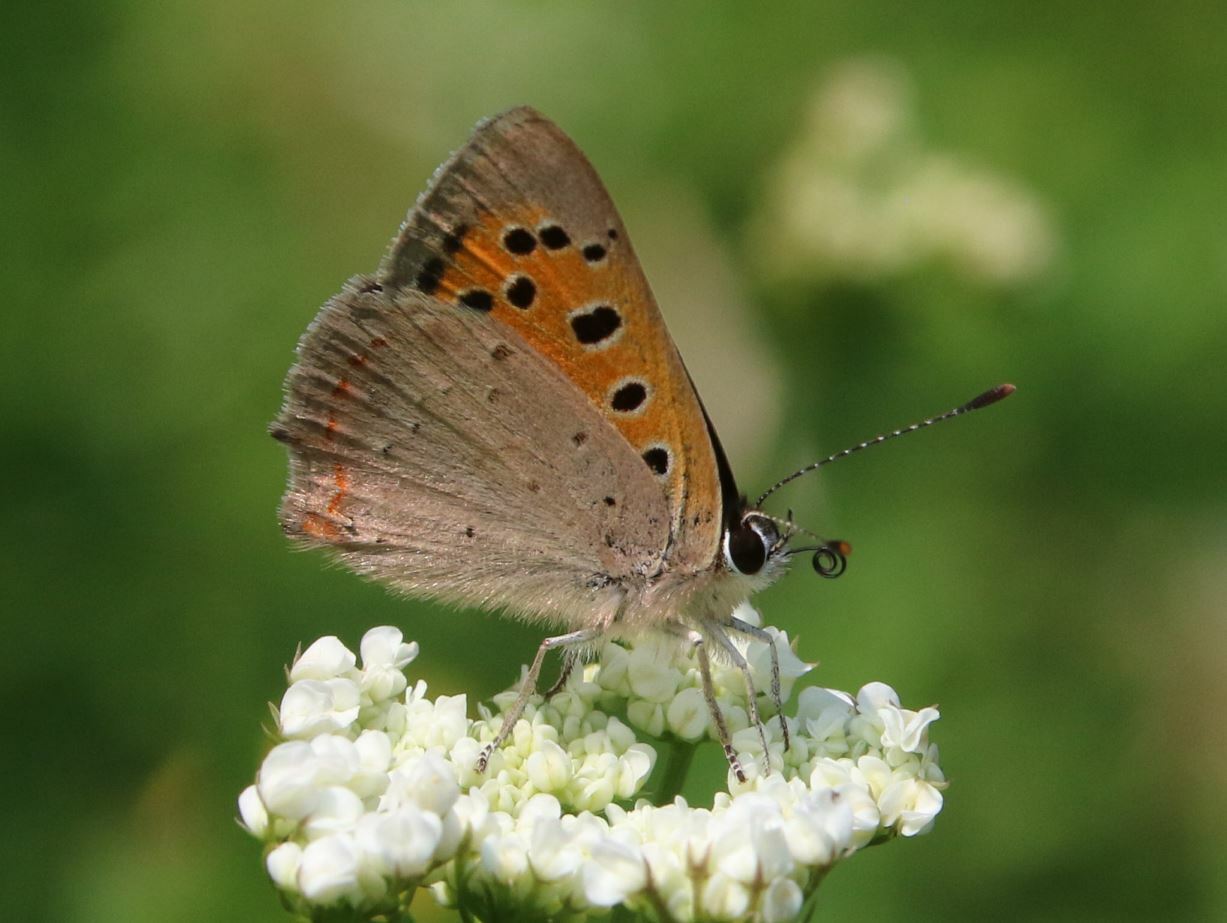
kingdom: Animalia
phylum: Arthropoda
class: Insecta
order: Lepidoptera
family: Lycaenidae
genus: Lycaena
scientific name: Lycaena phlaeas
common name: Small copper
